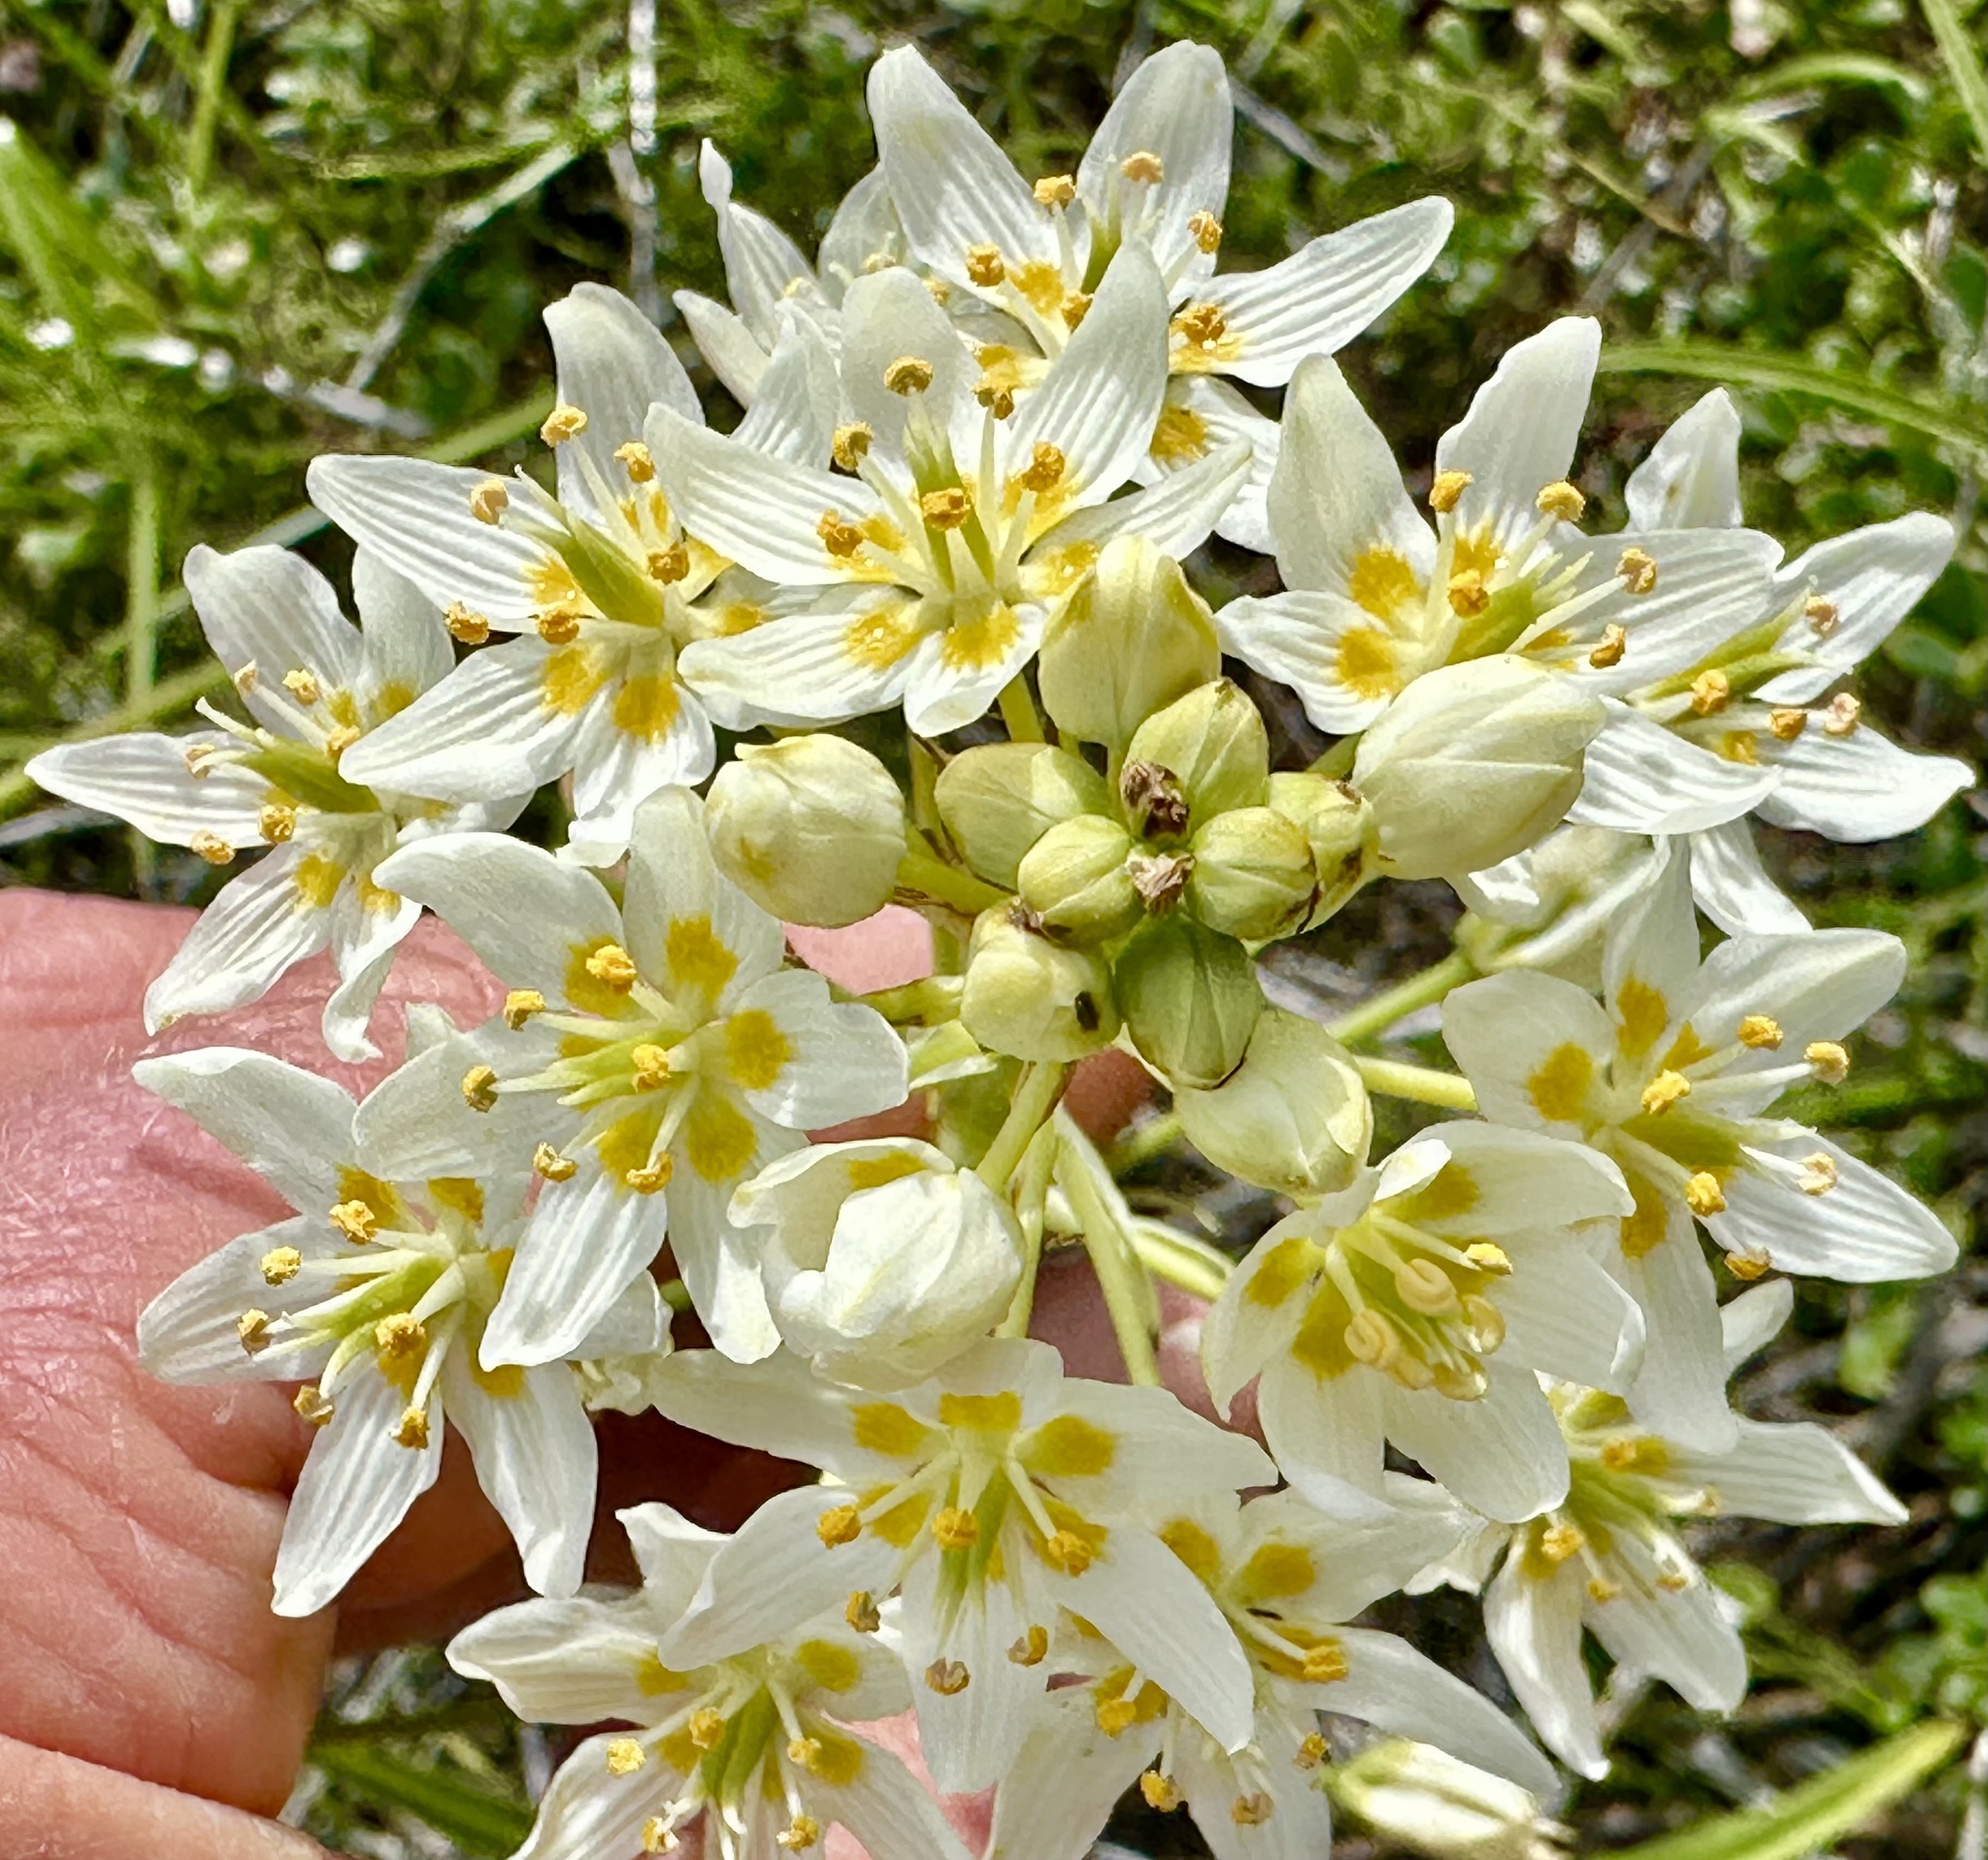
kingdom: Plantae
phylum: Tracheophyta
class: Liliopsida
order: Liliales
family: Melanthiaceae
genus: Toxicoscordion
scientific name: Toxicoscordion fremontii
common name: Fremont's death camas
